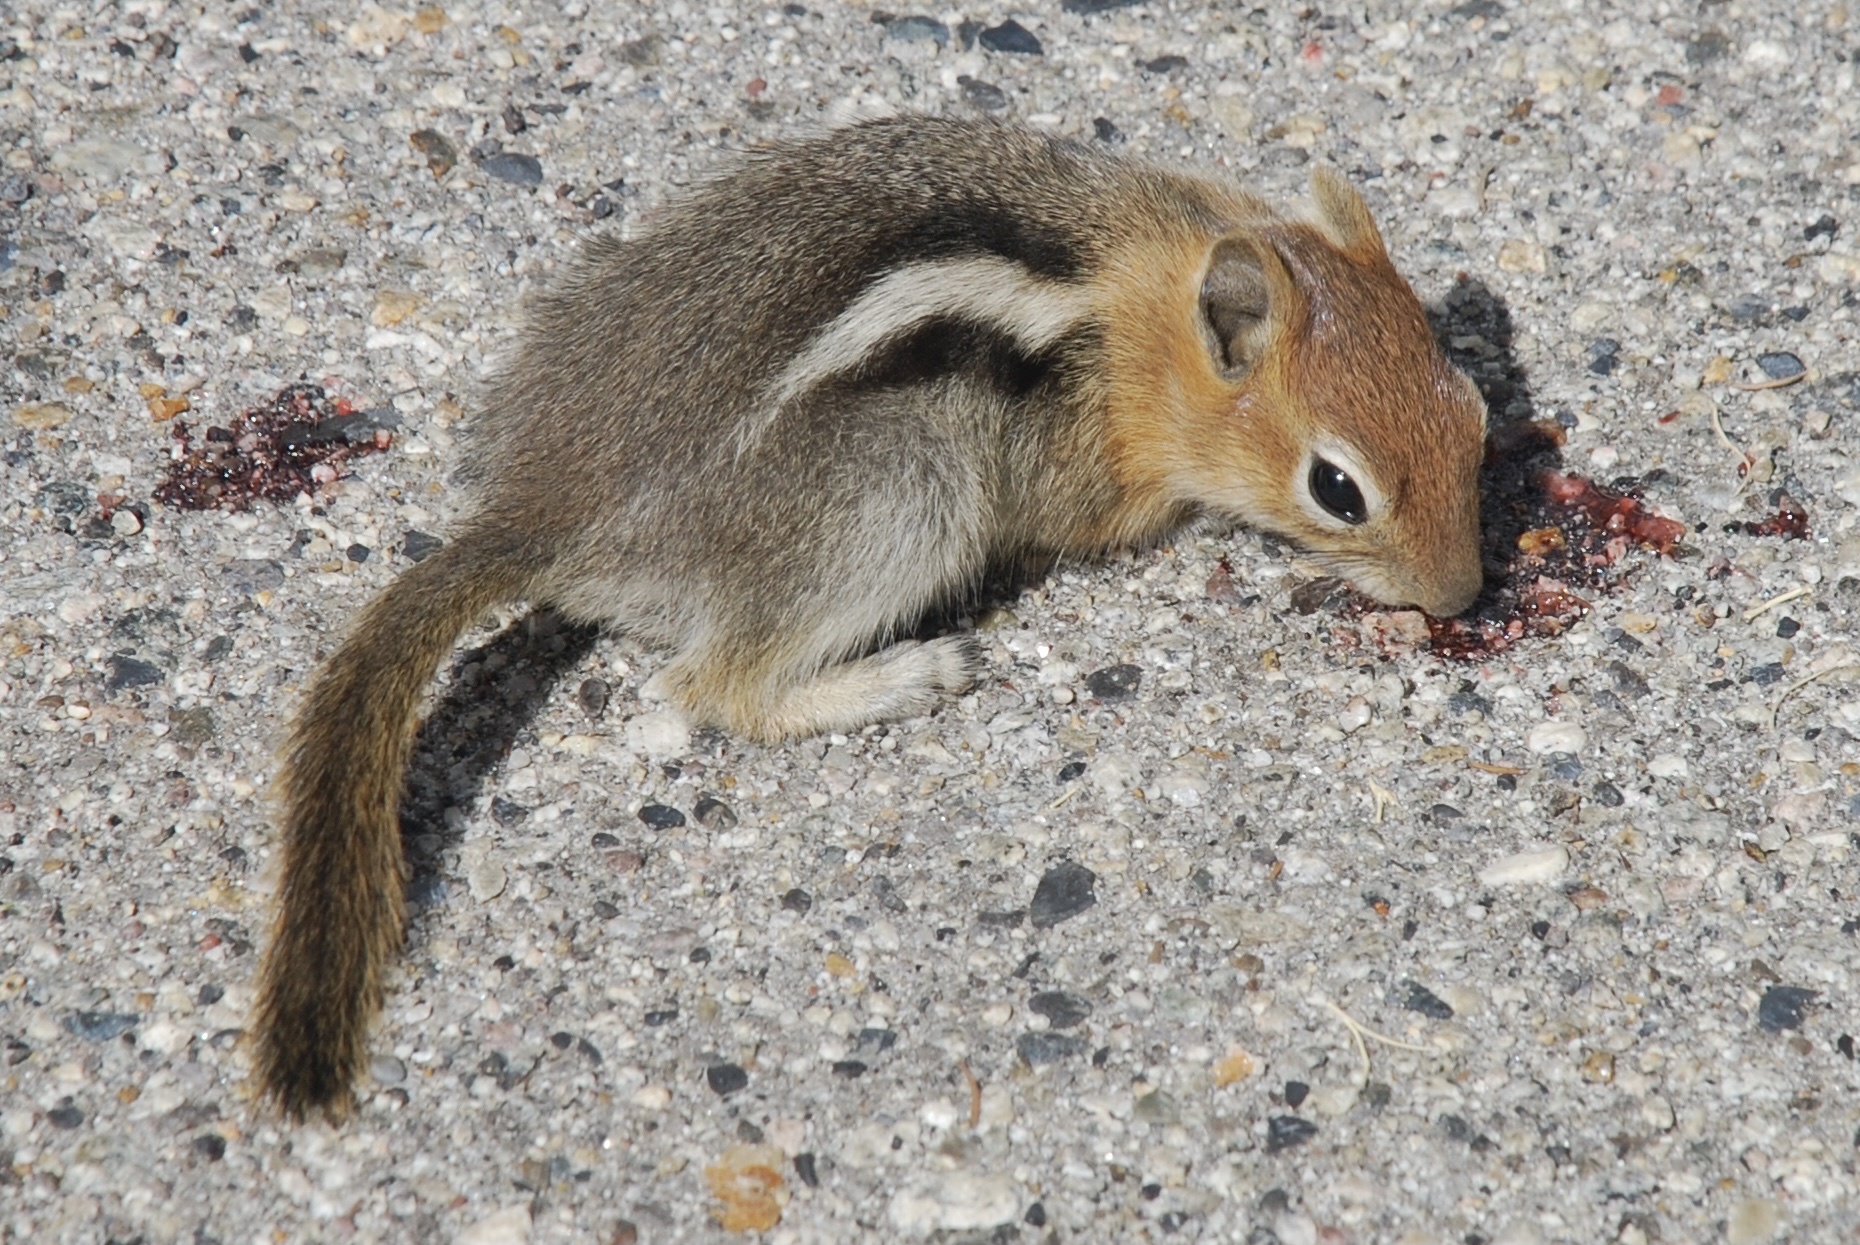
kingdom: Animalia
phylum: Chordata
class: Mammalia
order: Rodentia
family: Sciuridae
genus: Callospermophilus
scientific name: Callospermophilus lateralis
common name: Golden-mantled ground squirrel
